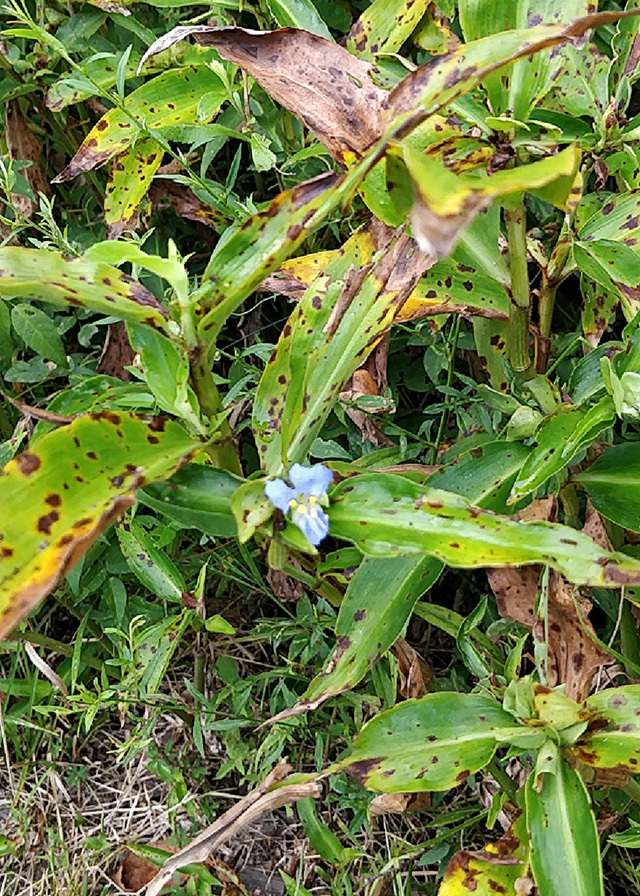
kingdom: Plantae
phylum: Tracheophyta
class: Liliopsida
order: Commelinales
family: Commelinaceae
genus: Commelina
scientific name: Commelina virginica
